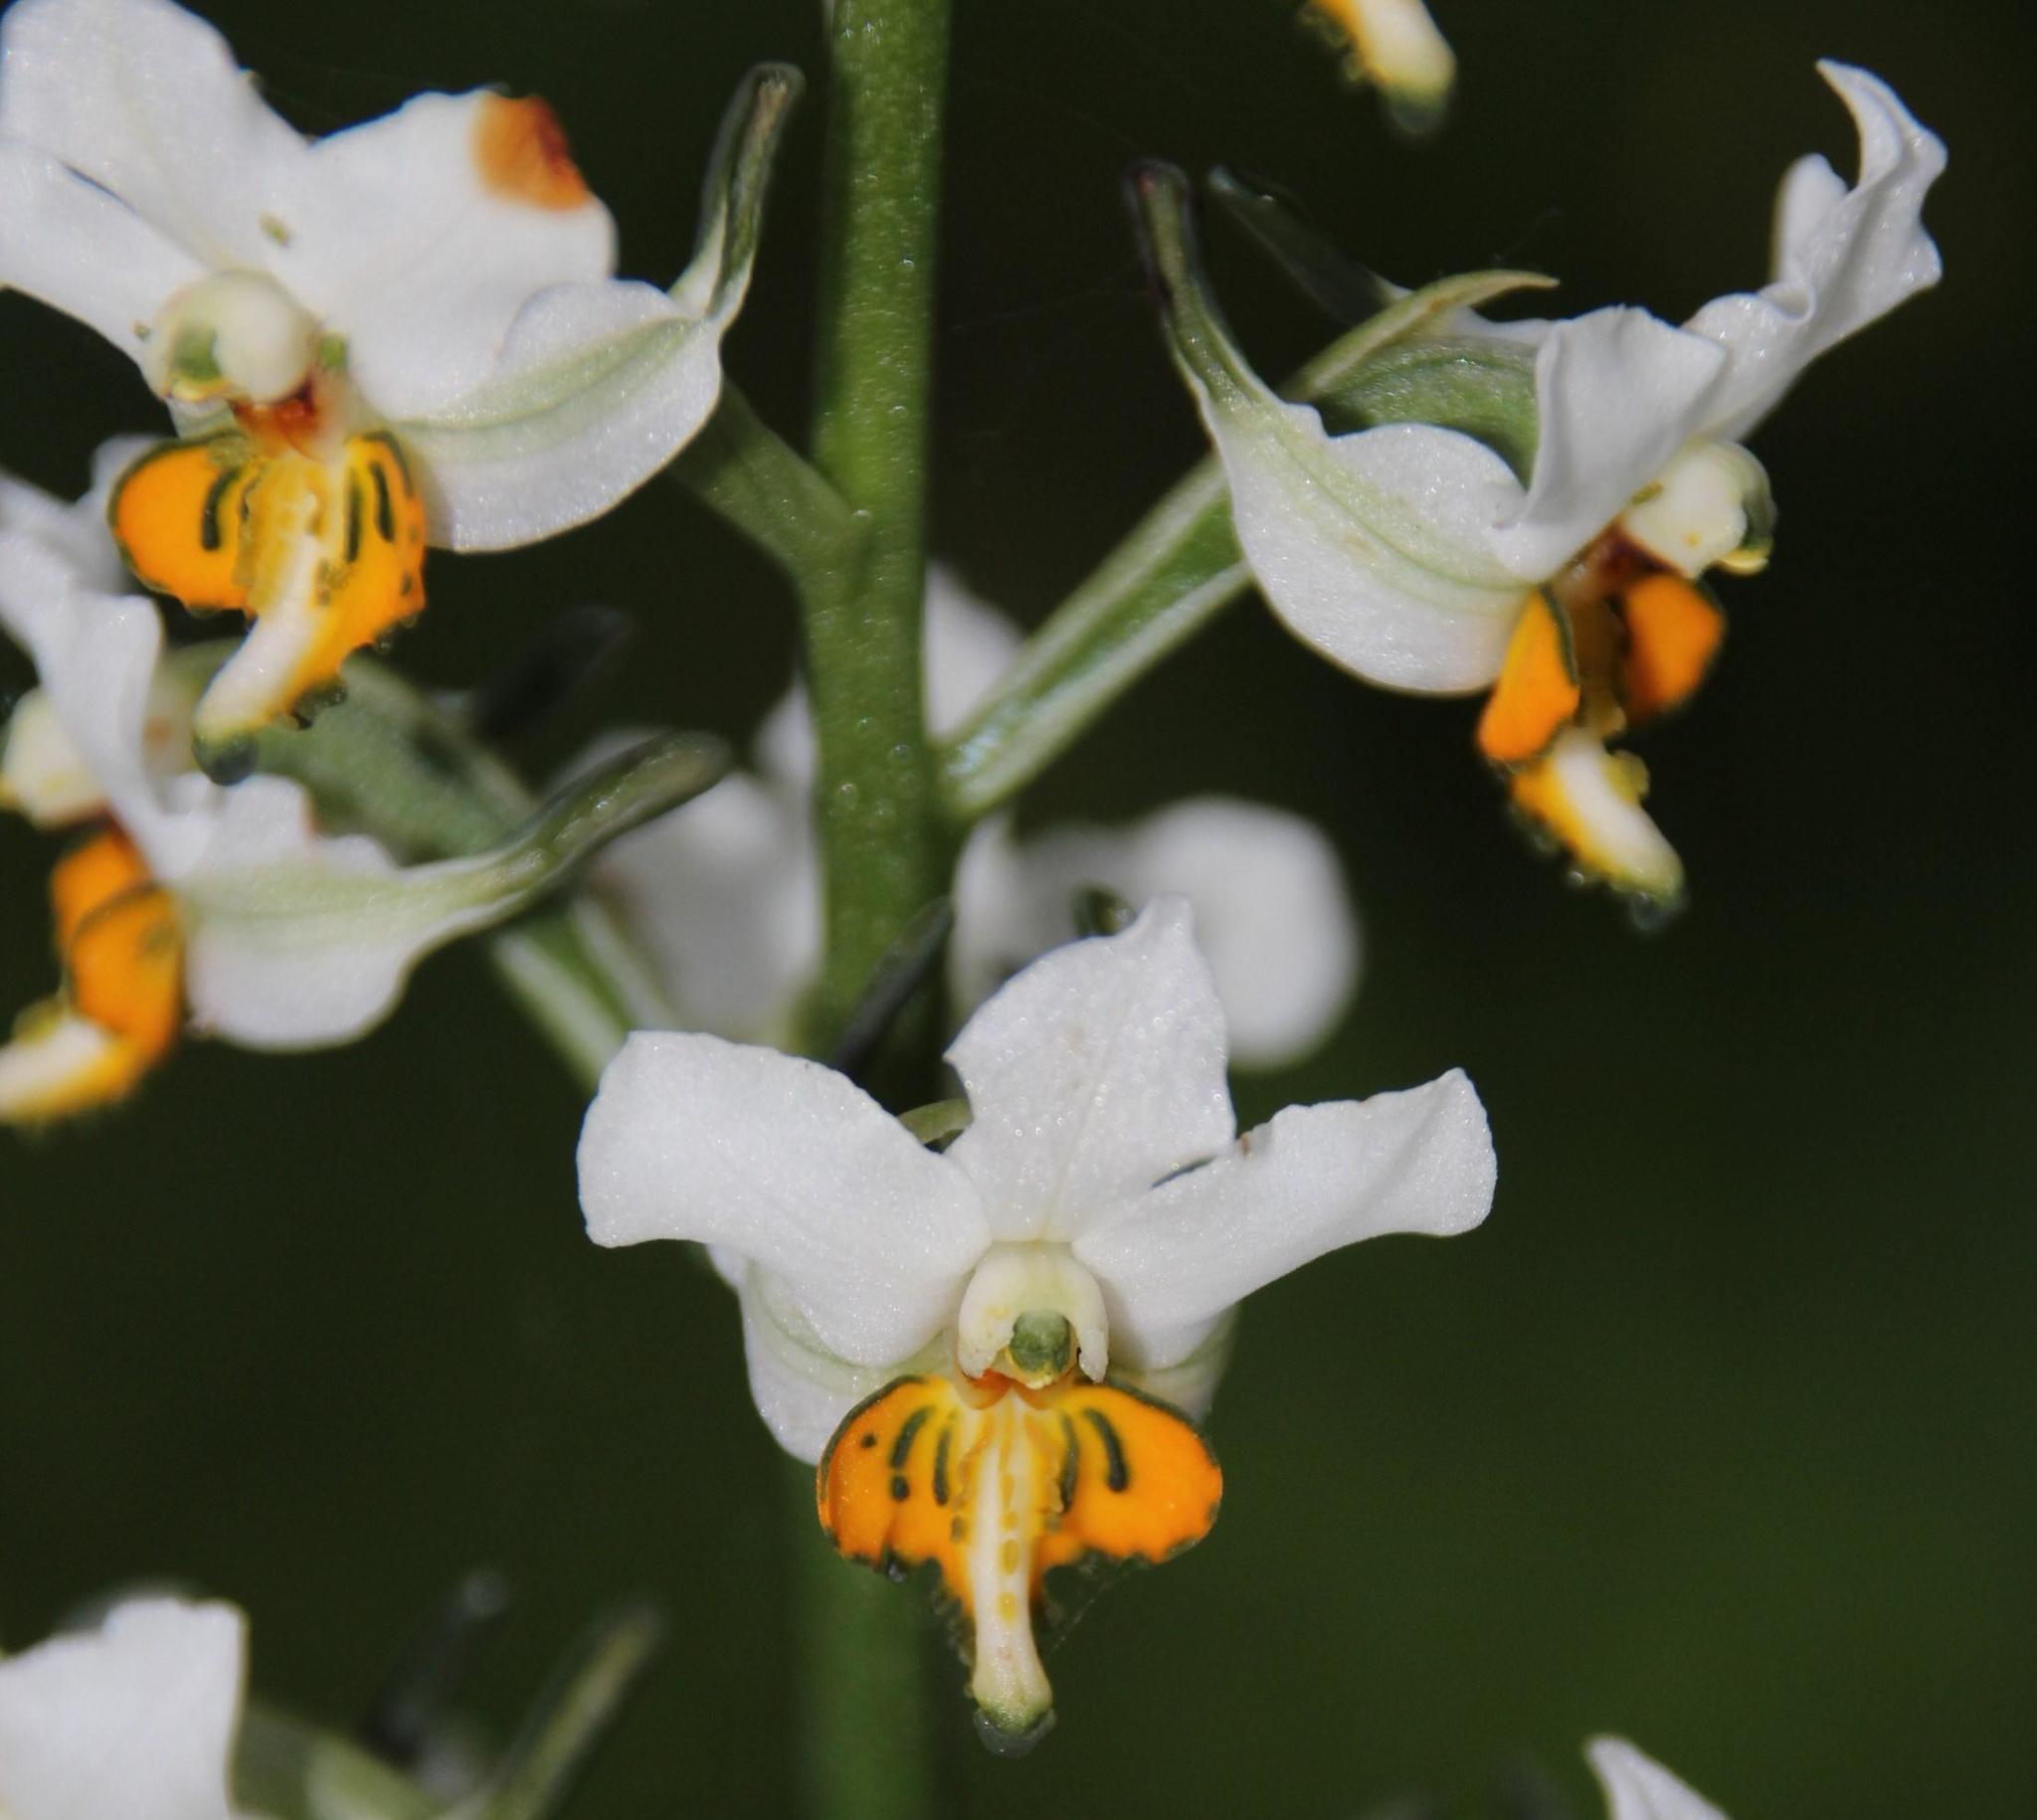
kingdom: Plantae
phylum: Tracheophyta
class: Liliopsida
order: Asparagales
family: Orchidaceae
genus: Gavilea
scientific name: Gavilea longibracteata
